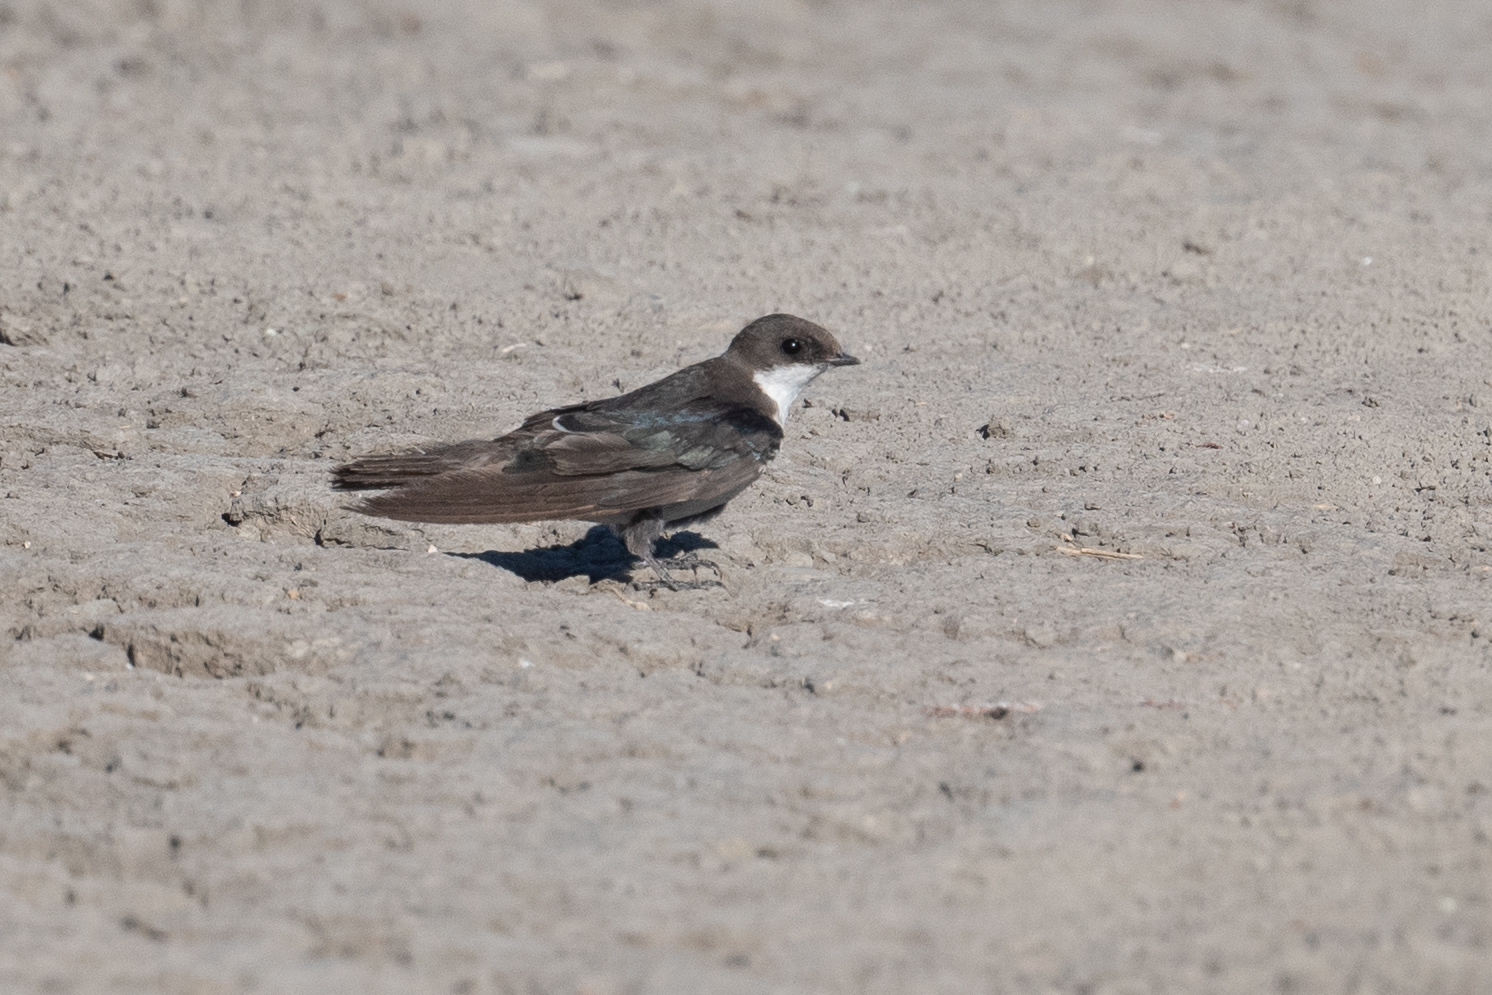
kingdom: Animalia
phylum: Chordata
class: Aves
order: Passeriformes
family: Hirundinidae
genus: Tachycineta
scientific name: Tachycineta bicolor
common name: Tree swallow
